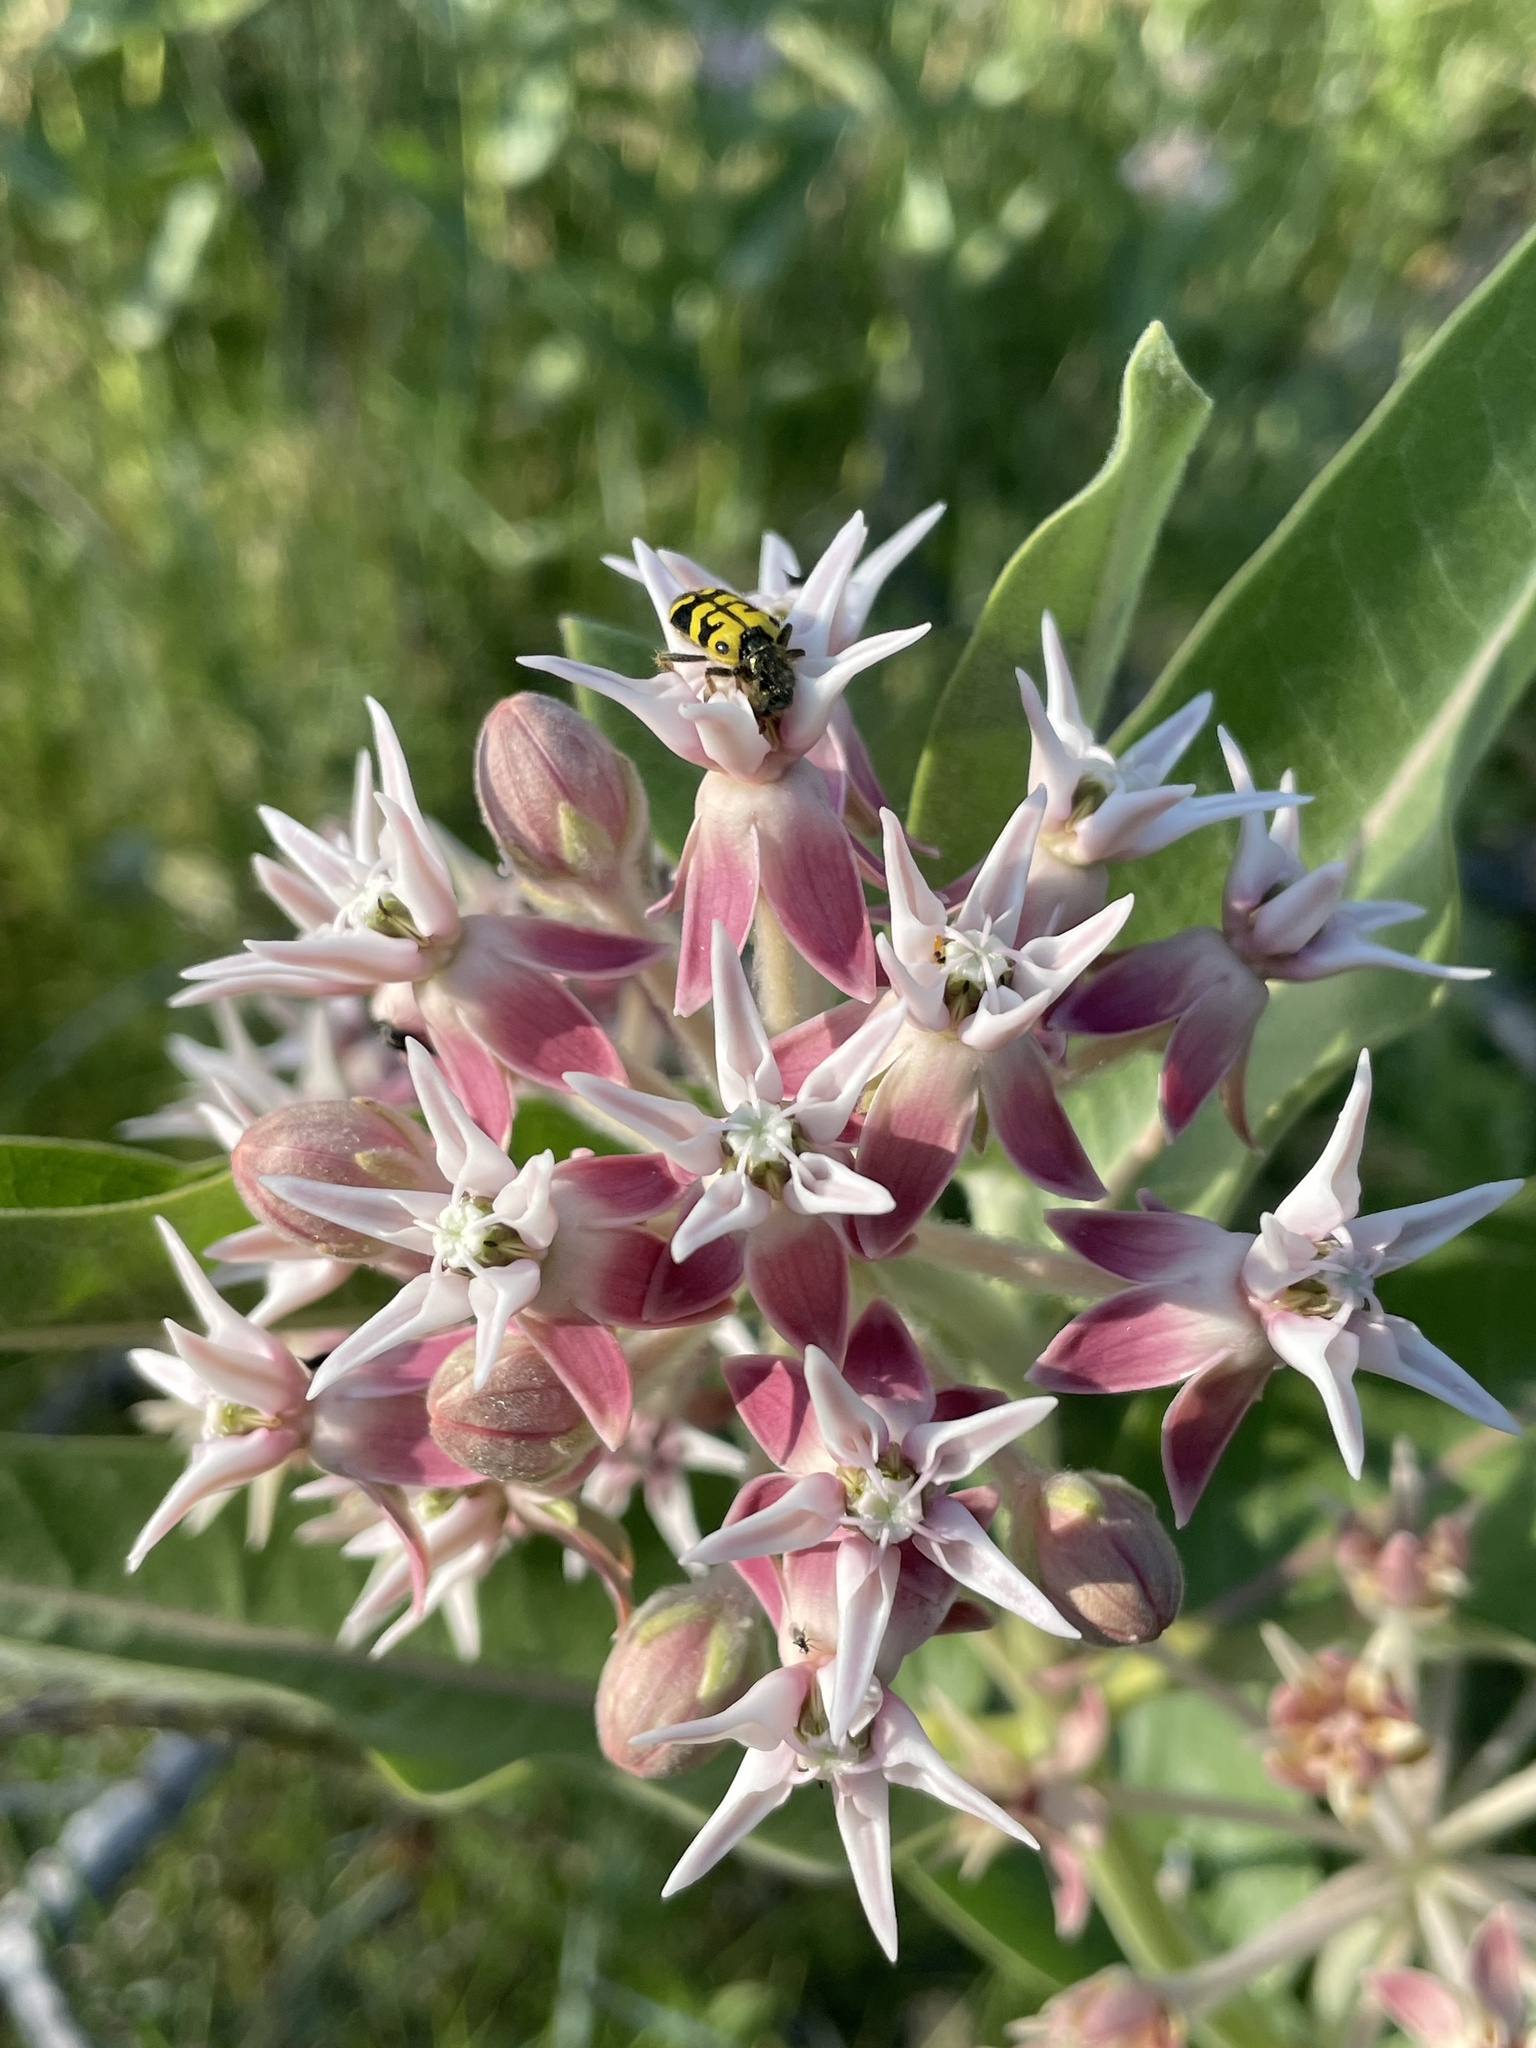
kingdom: Plantae
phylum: Tracheophyta
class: Magnoliopsida
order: Gentianales
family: Apocynaceae
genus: Asclepias
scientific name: Asclepias speciosa
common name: Showy milkweed
